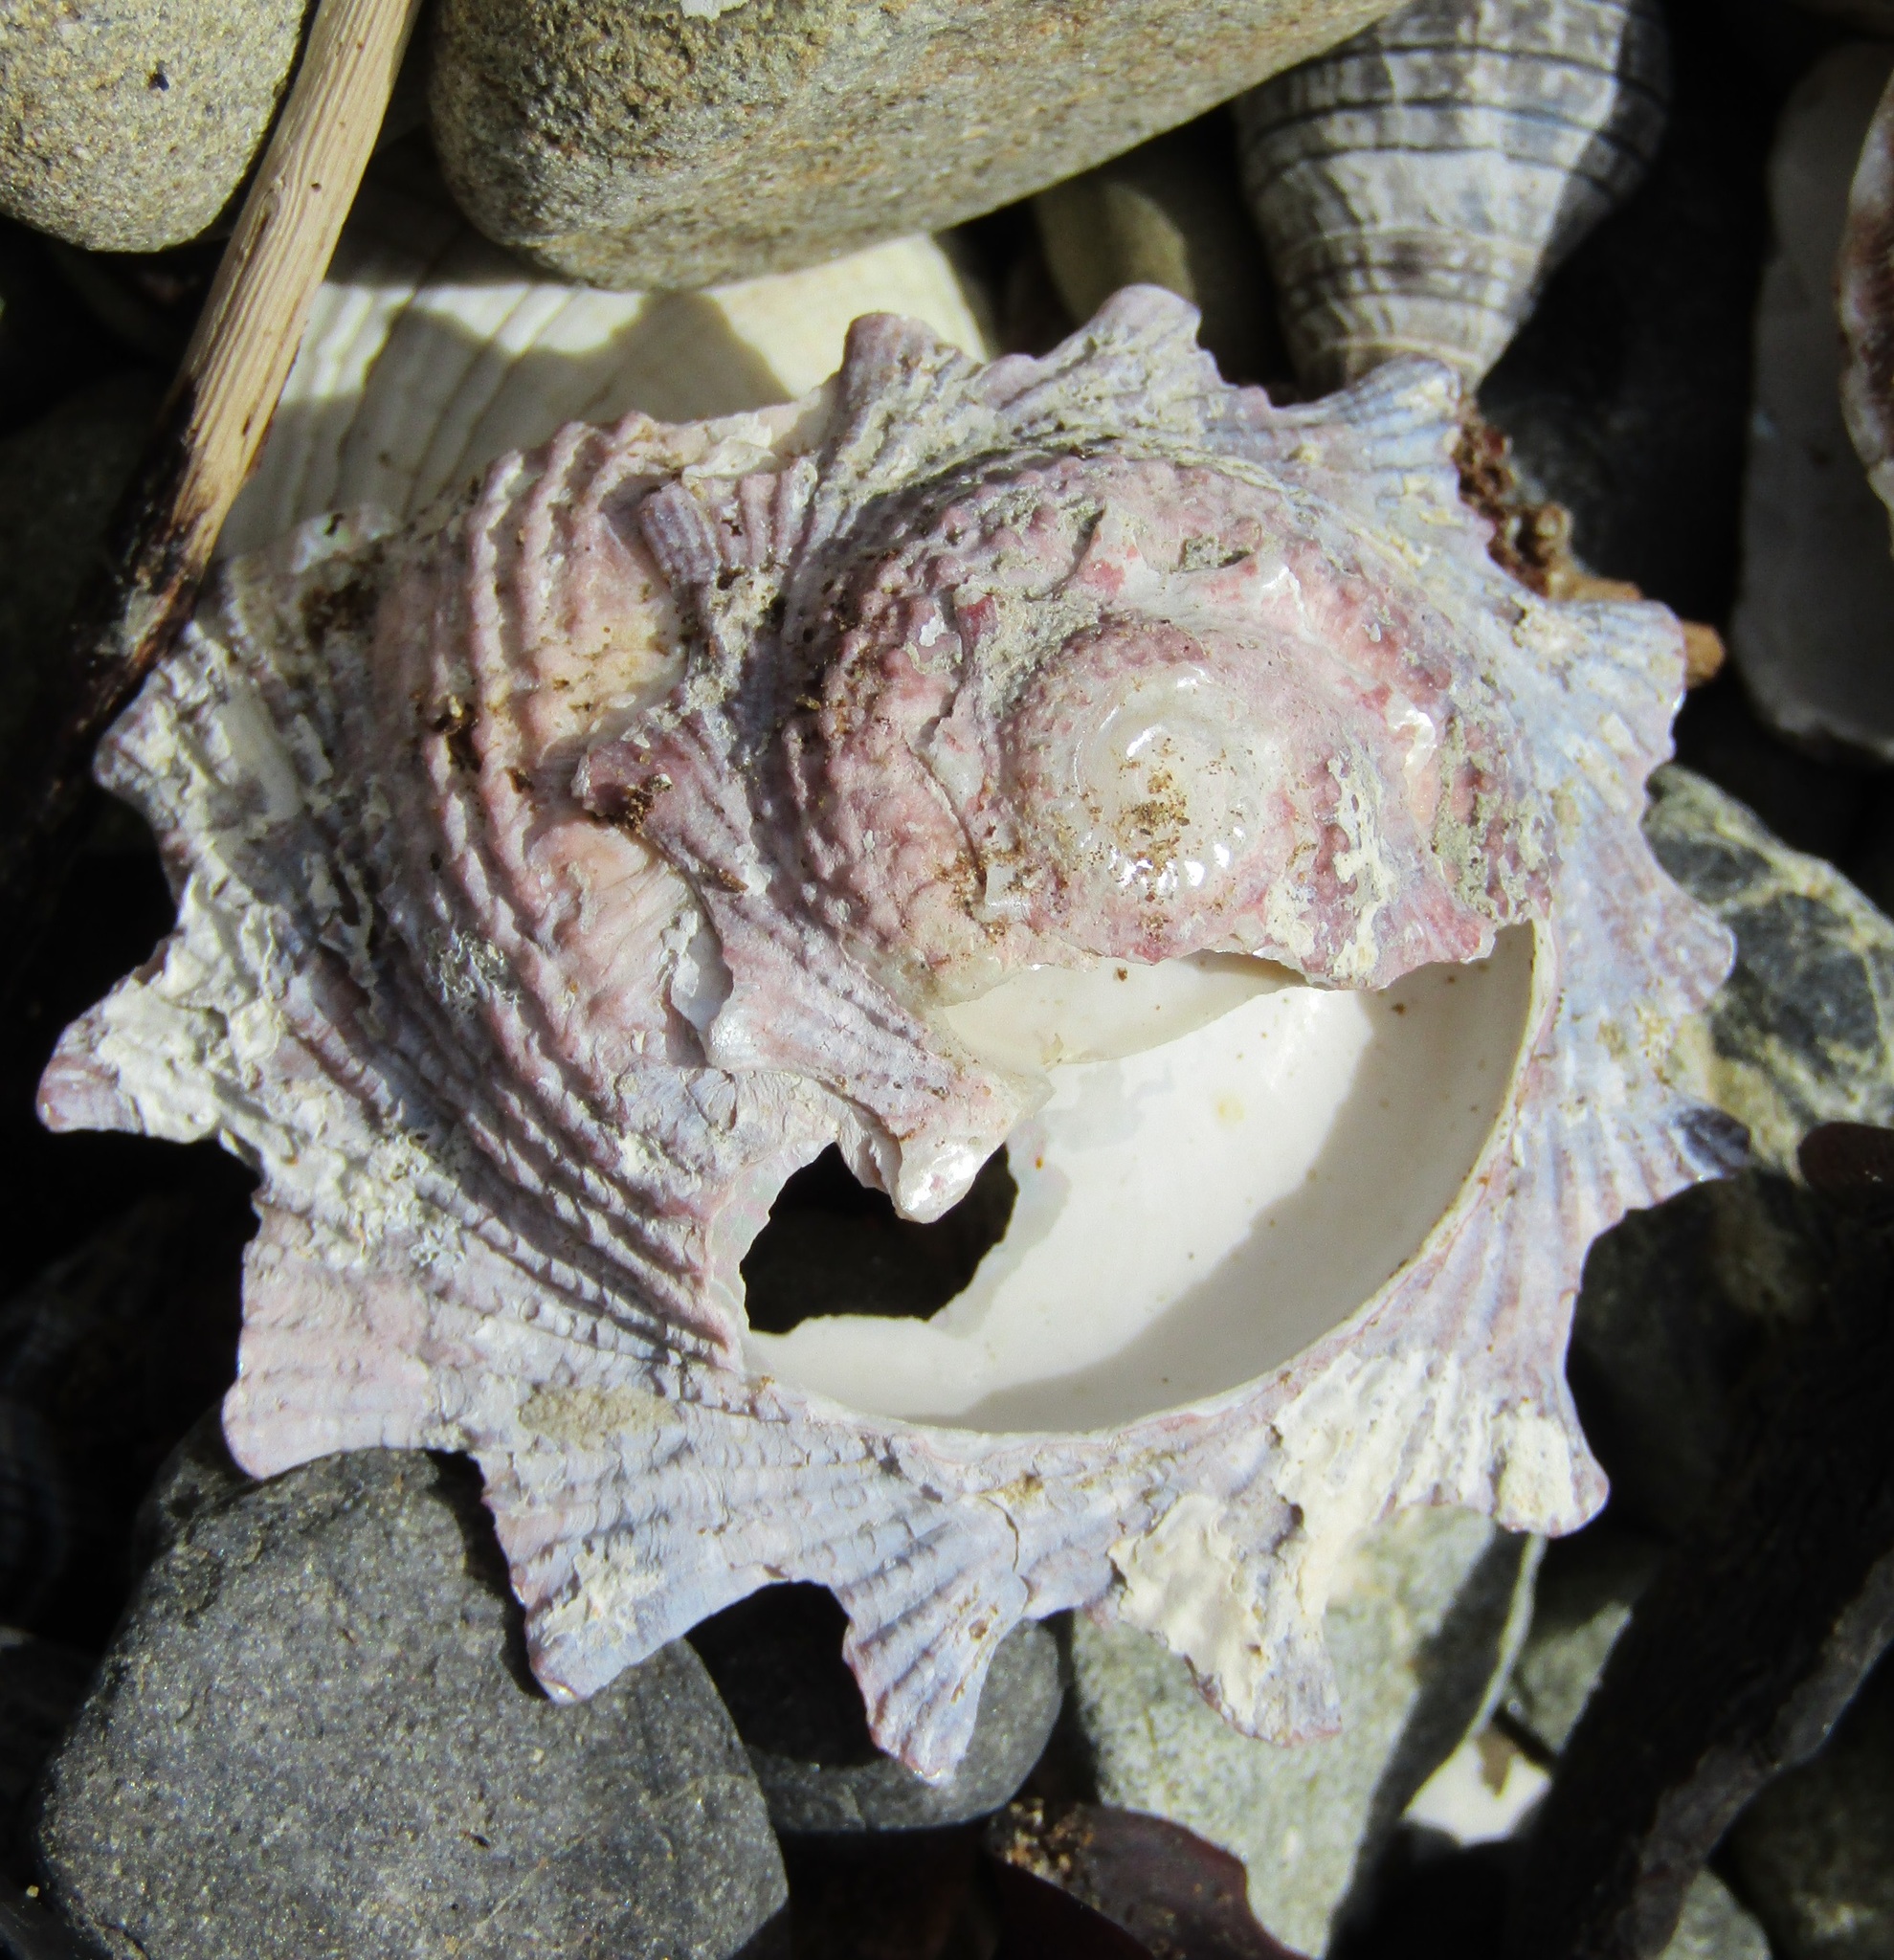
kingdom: Animalia
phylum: Mollusca
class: Gastropoda
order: Trochida
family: Turbinidae
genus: Astraea
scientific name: Astraea heliotropium
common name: Sun shell
